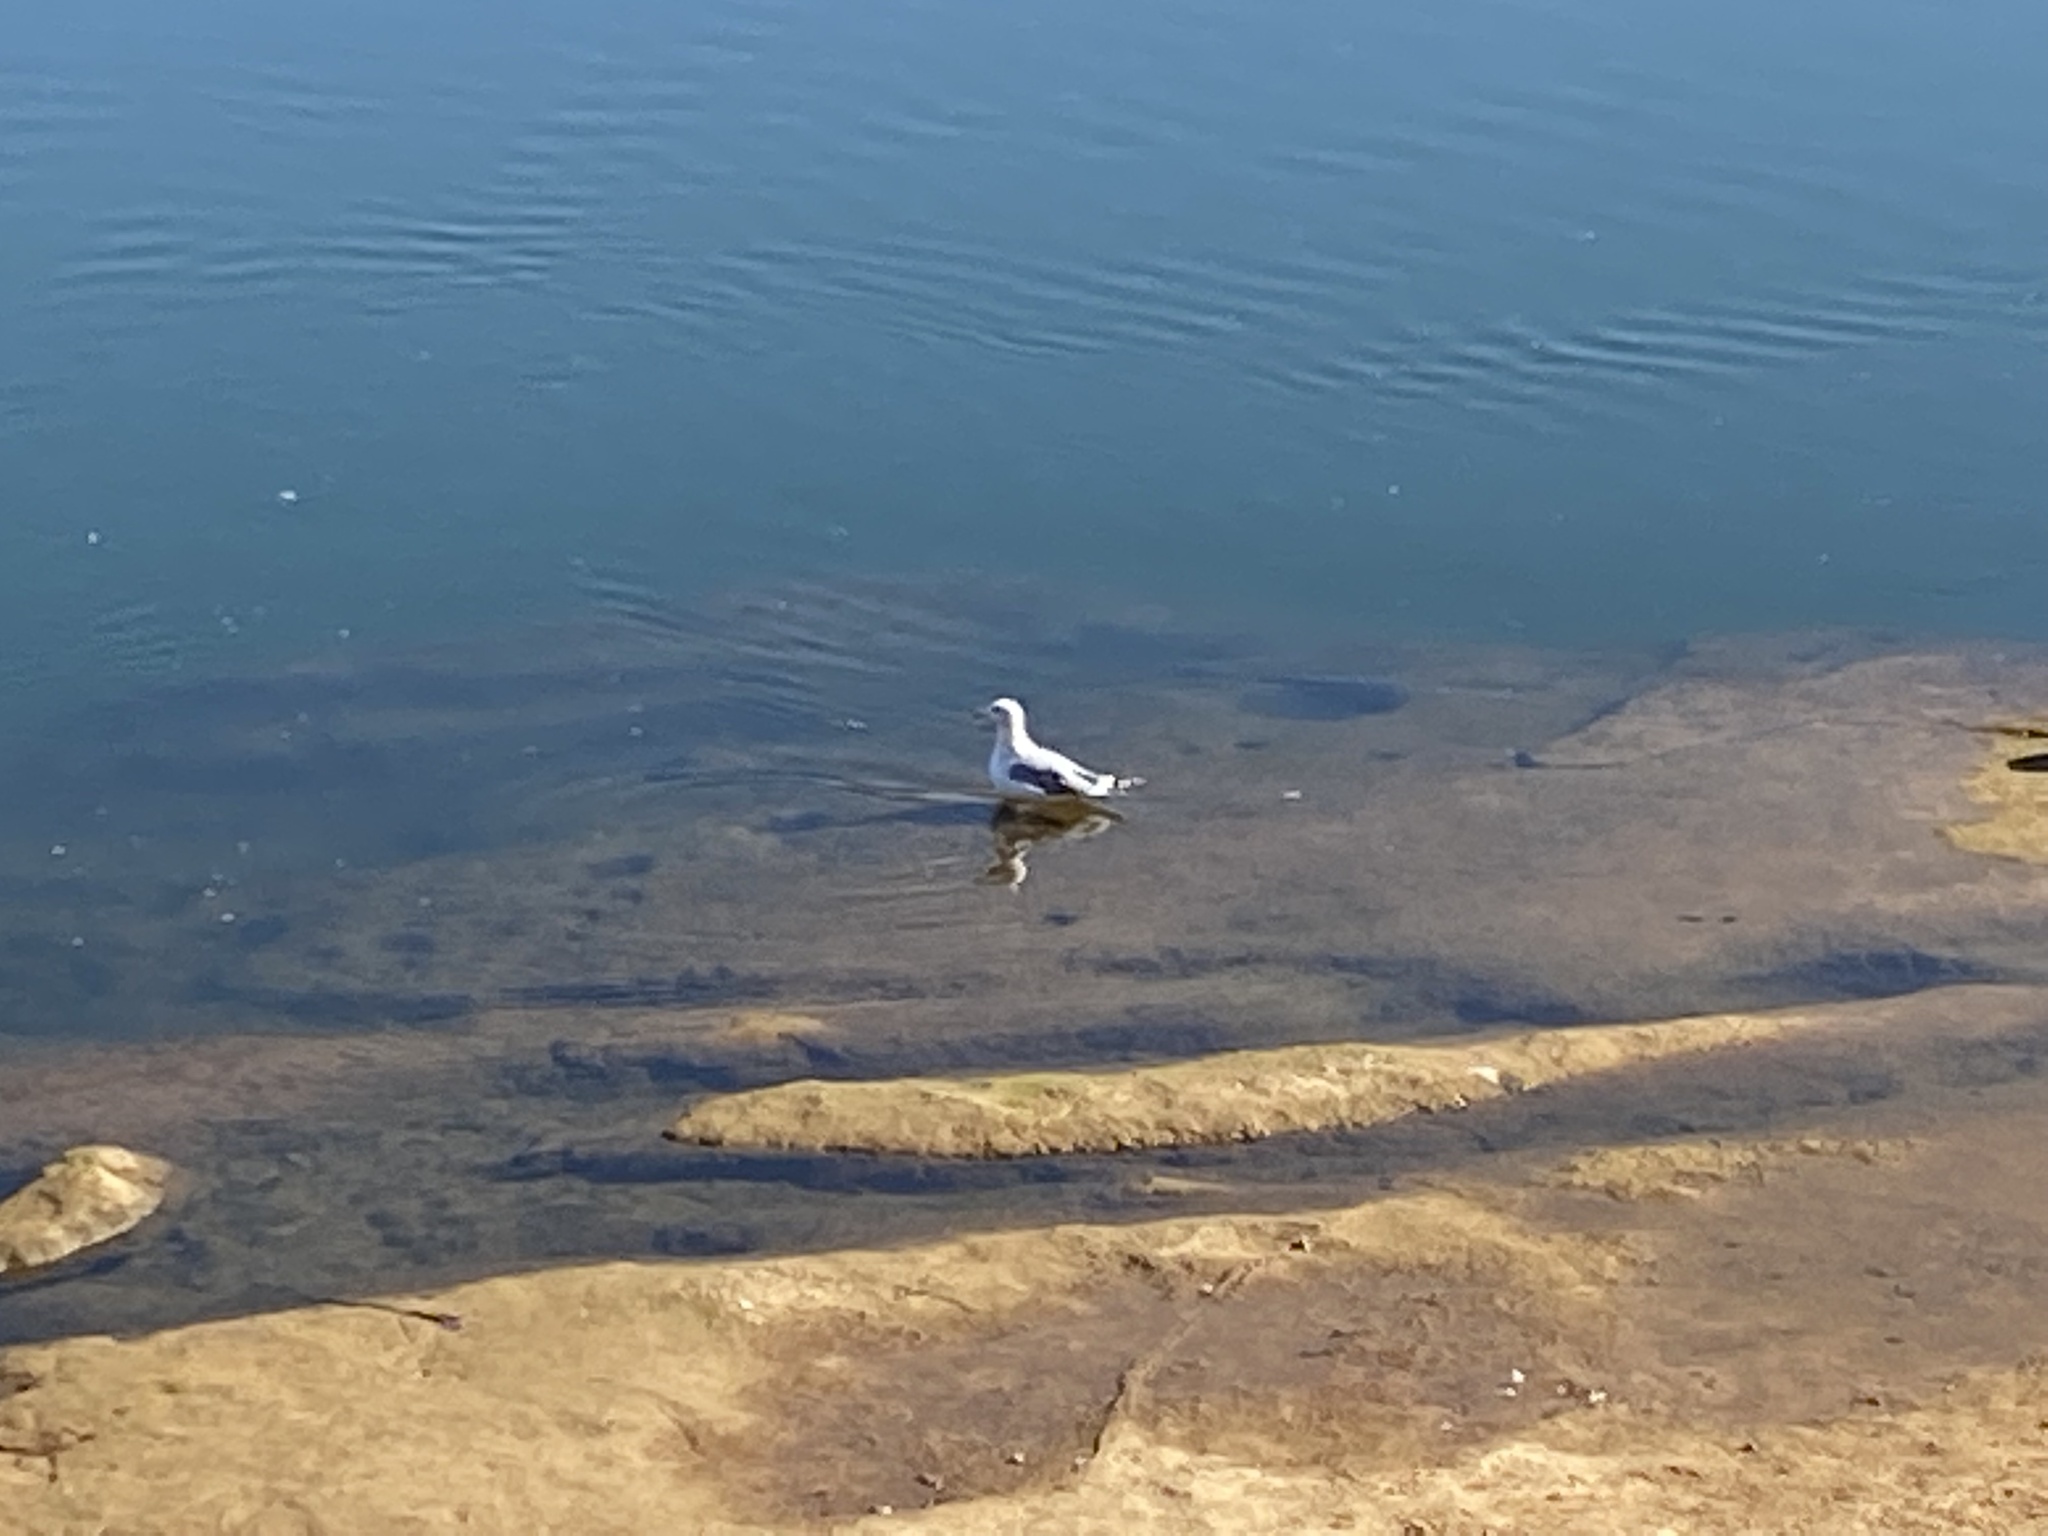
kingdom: Animalia
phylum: Chordata
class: Aves
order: Charadriiformes
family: Laridae
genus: Larus
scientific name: Larus californicus
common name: California gull
